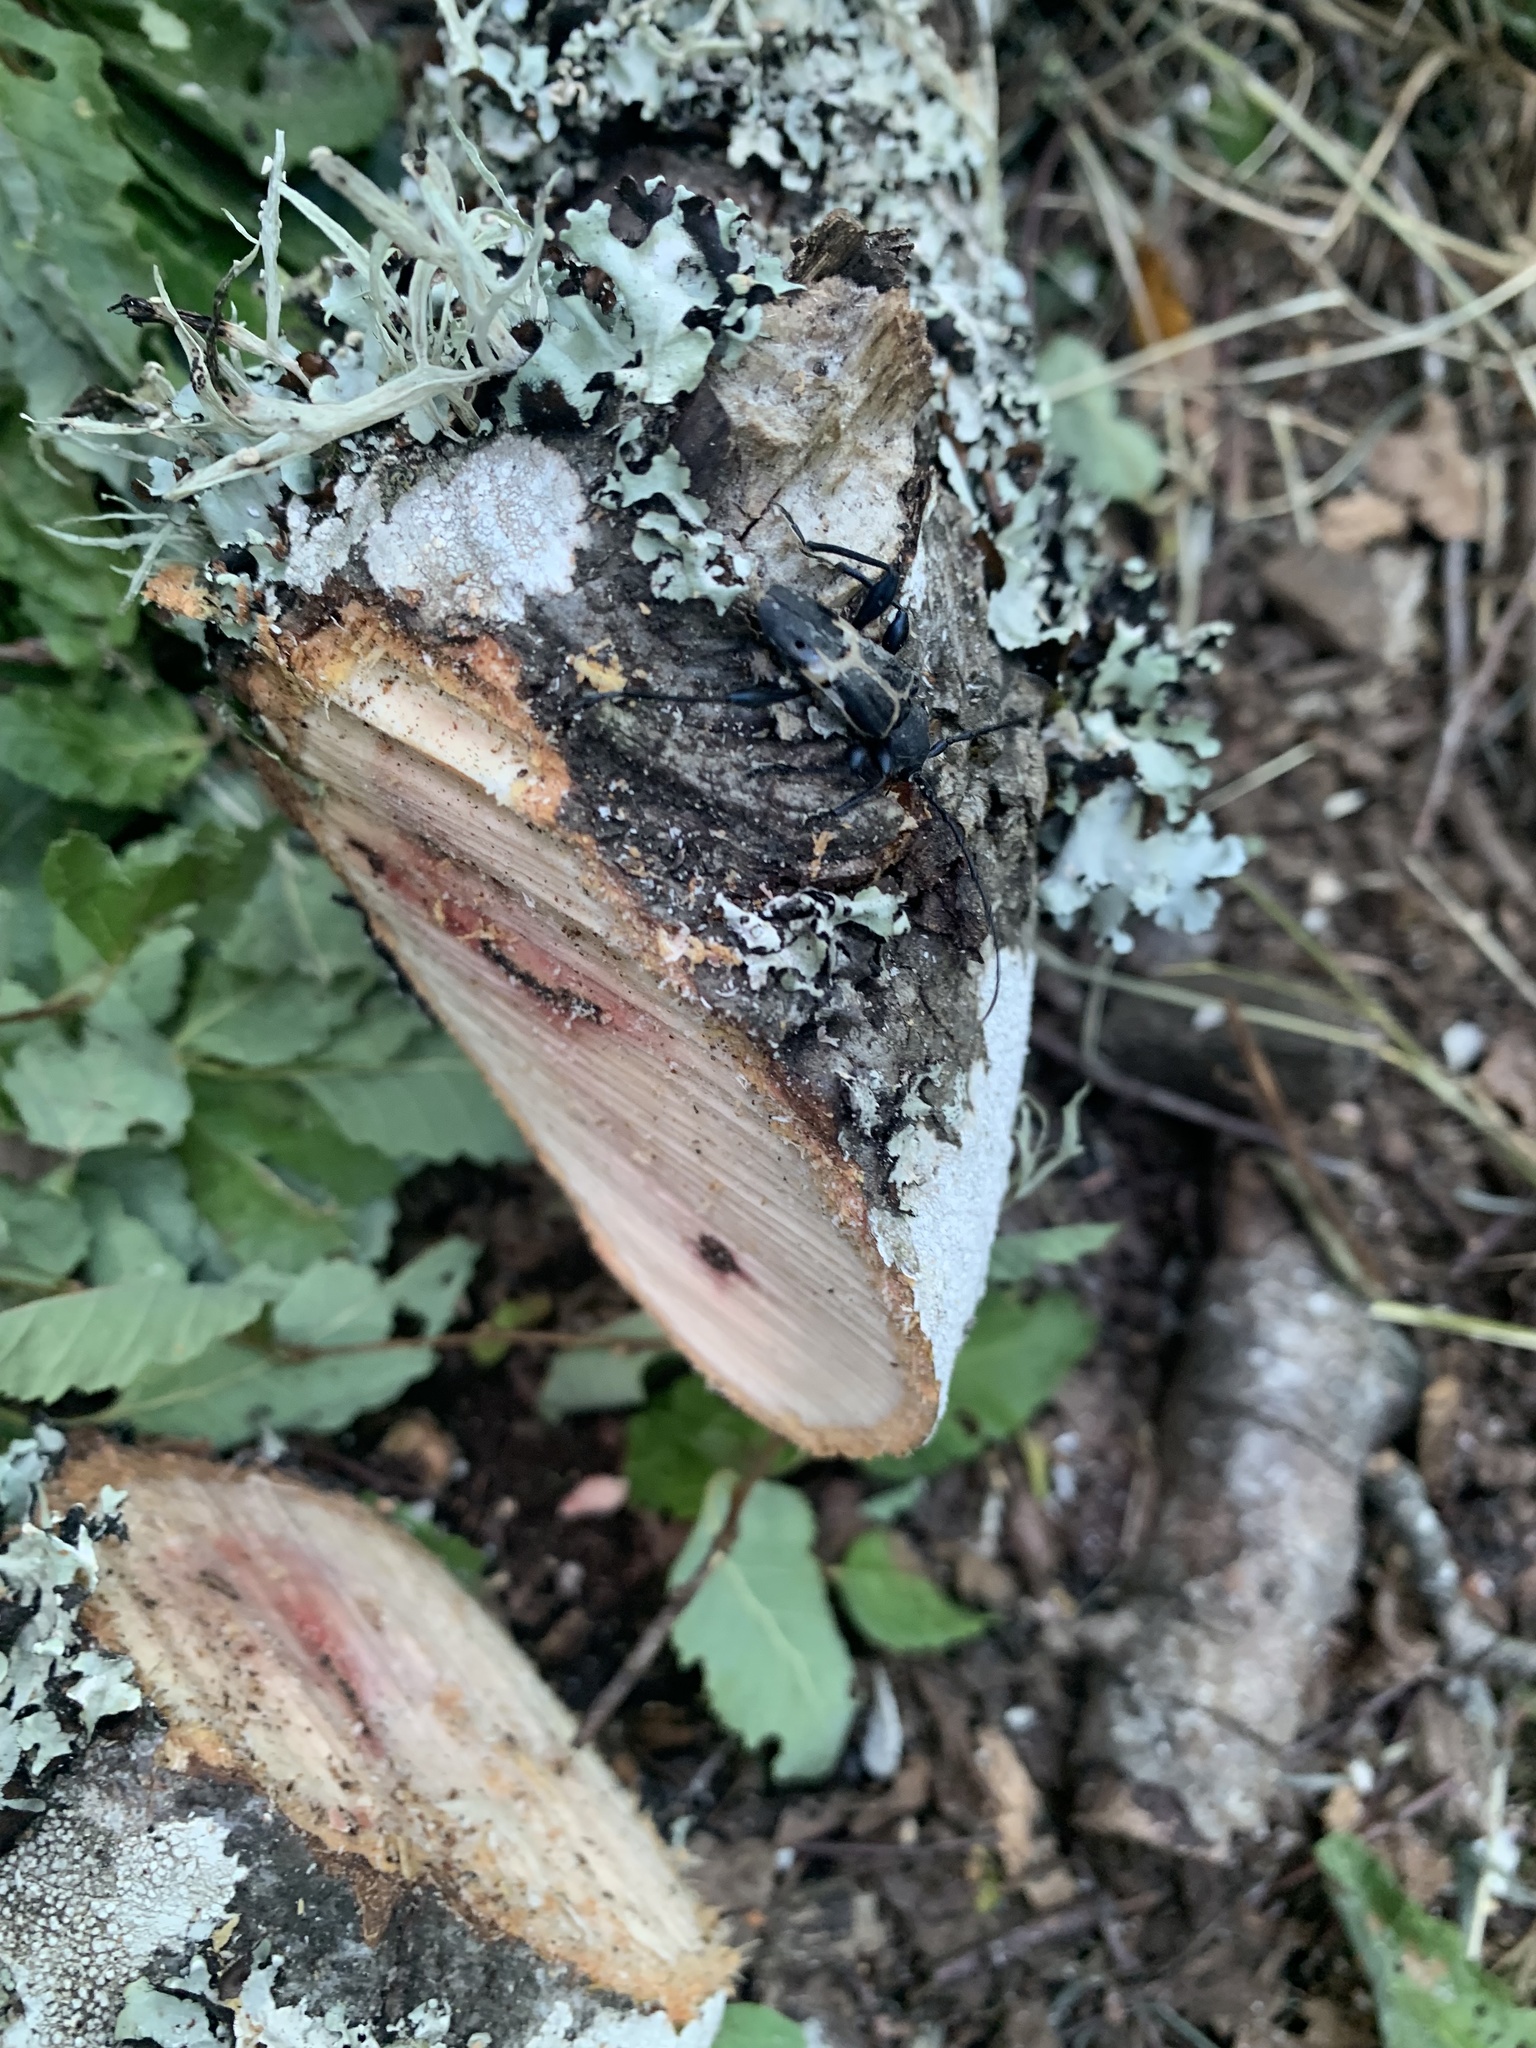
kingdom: Animalia
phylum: Arthropoda
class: Insecta
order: Coleoptera
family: Cerambycidae
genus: Calydon
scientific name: Calydon submetallicum
